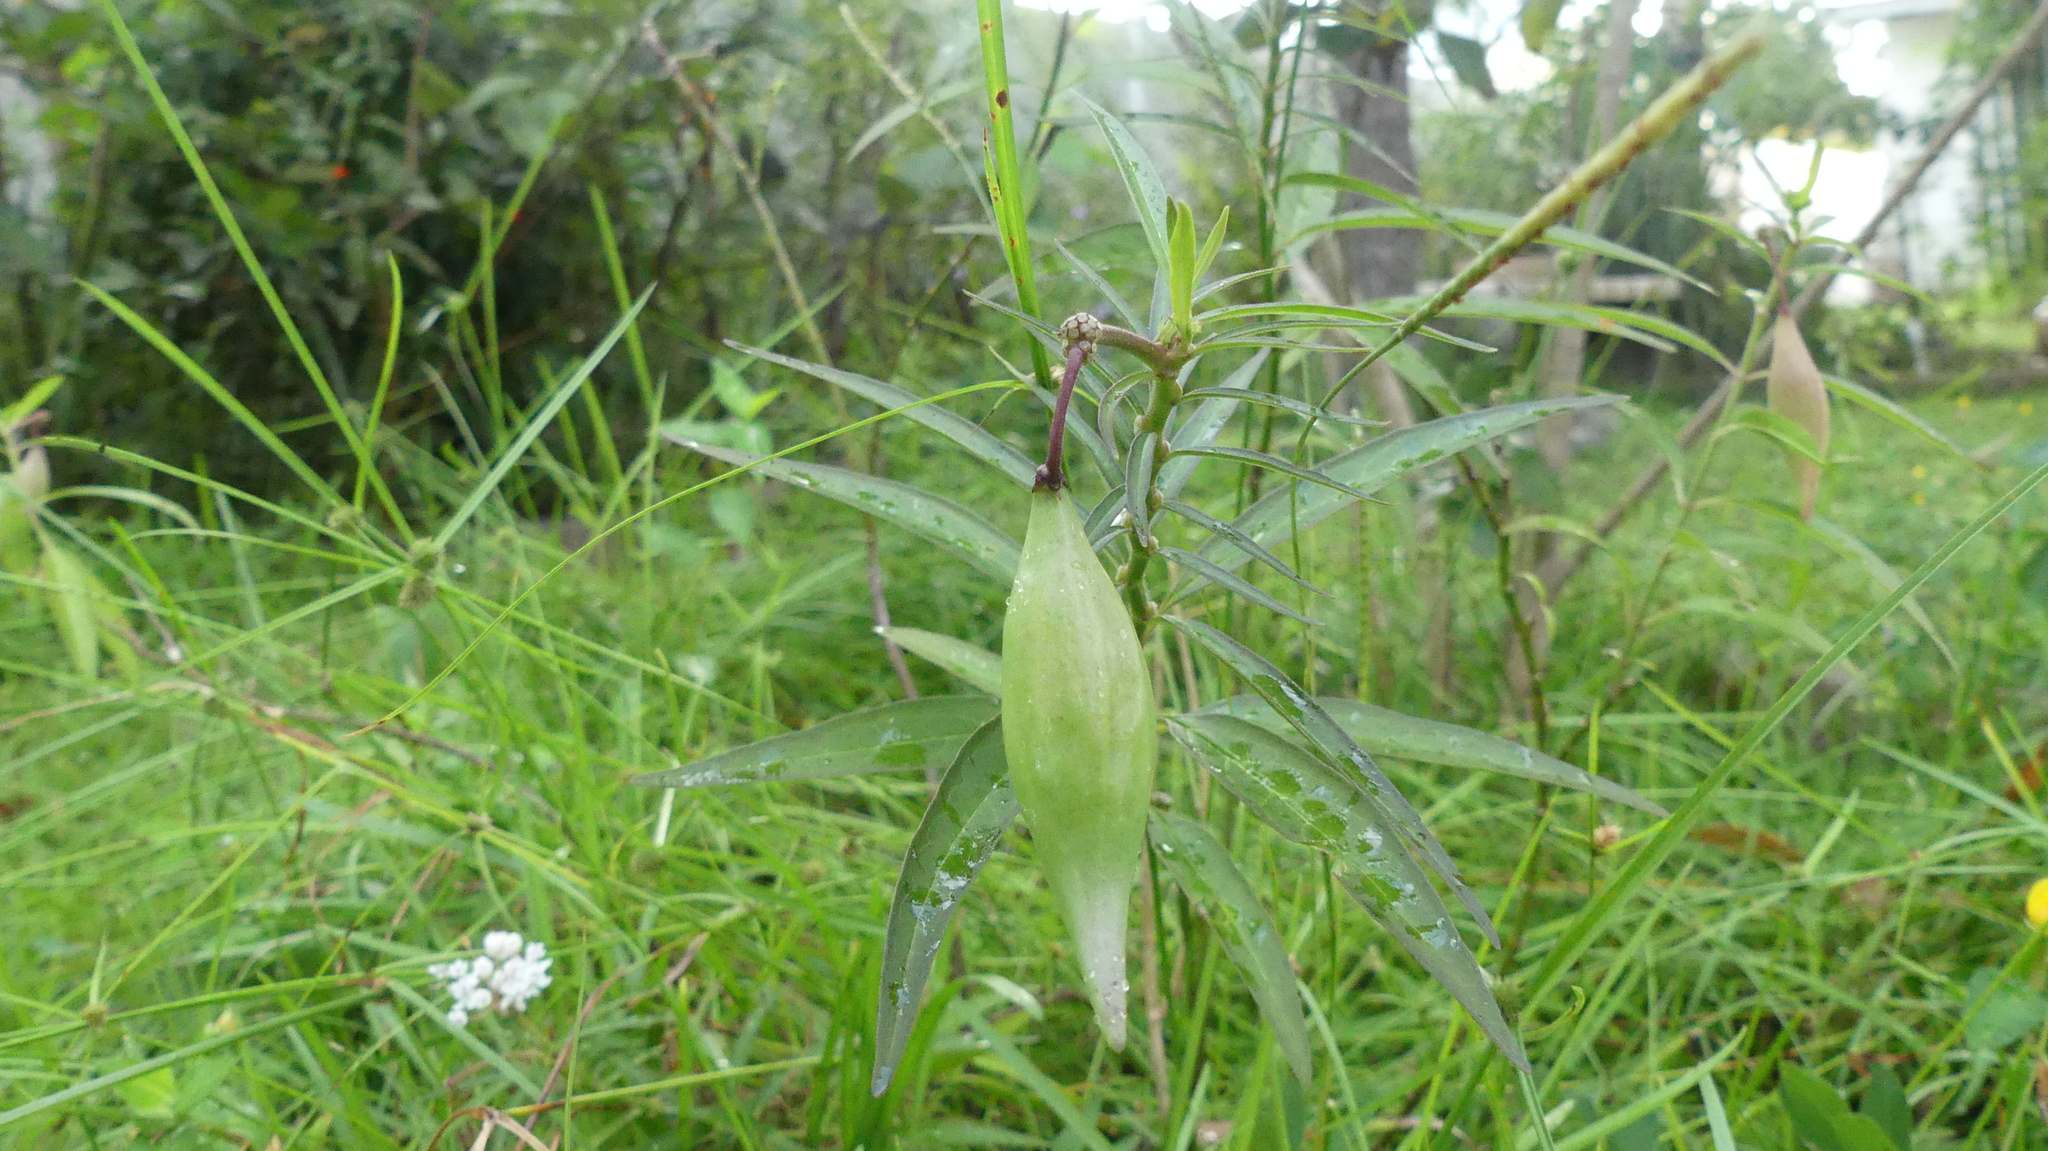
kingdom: Plantae
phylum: Tracheophyta
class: Magnoliopsida
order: Gentianales
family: Apocynaceae
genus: Asclepias
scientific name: Asclepias perennis
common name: Smooth-seed milkweed
